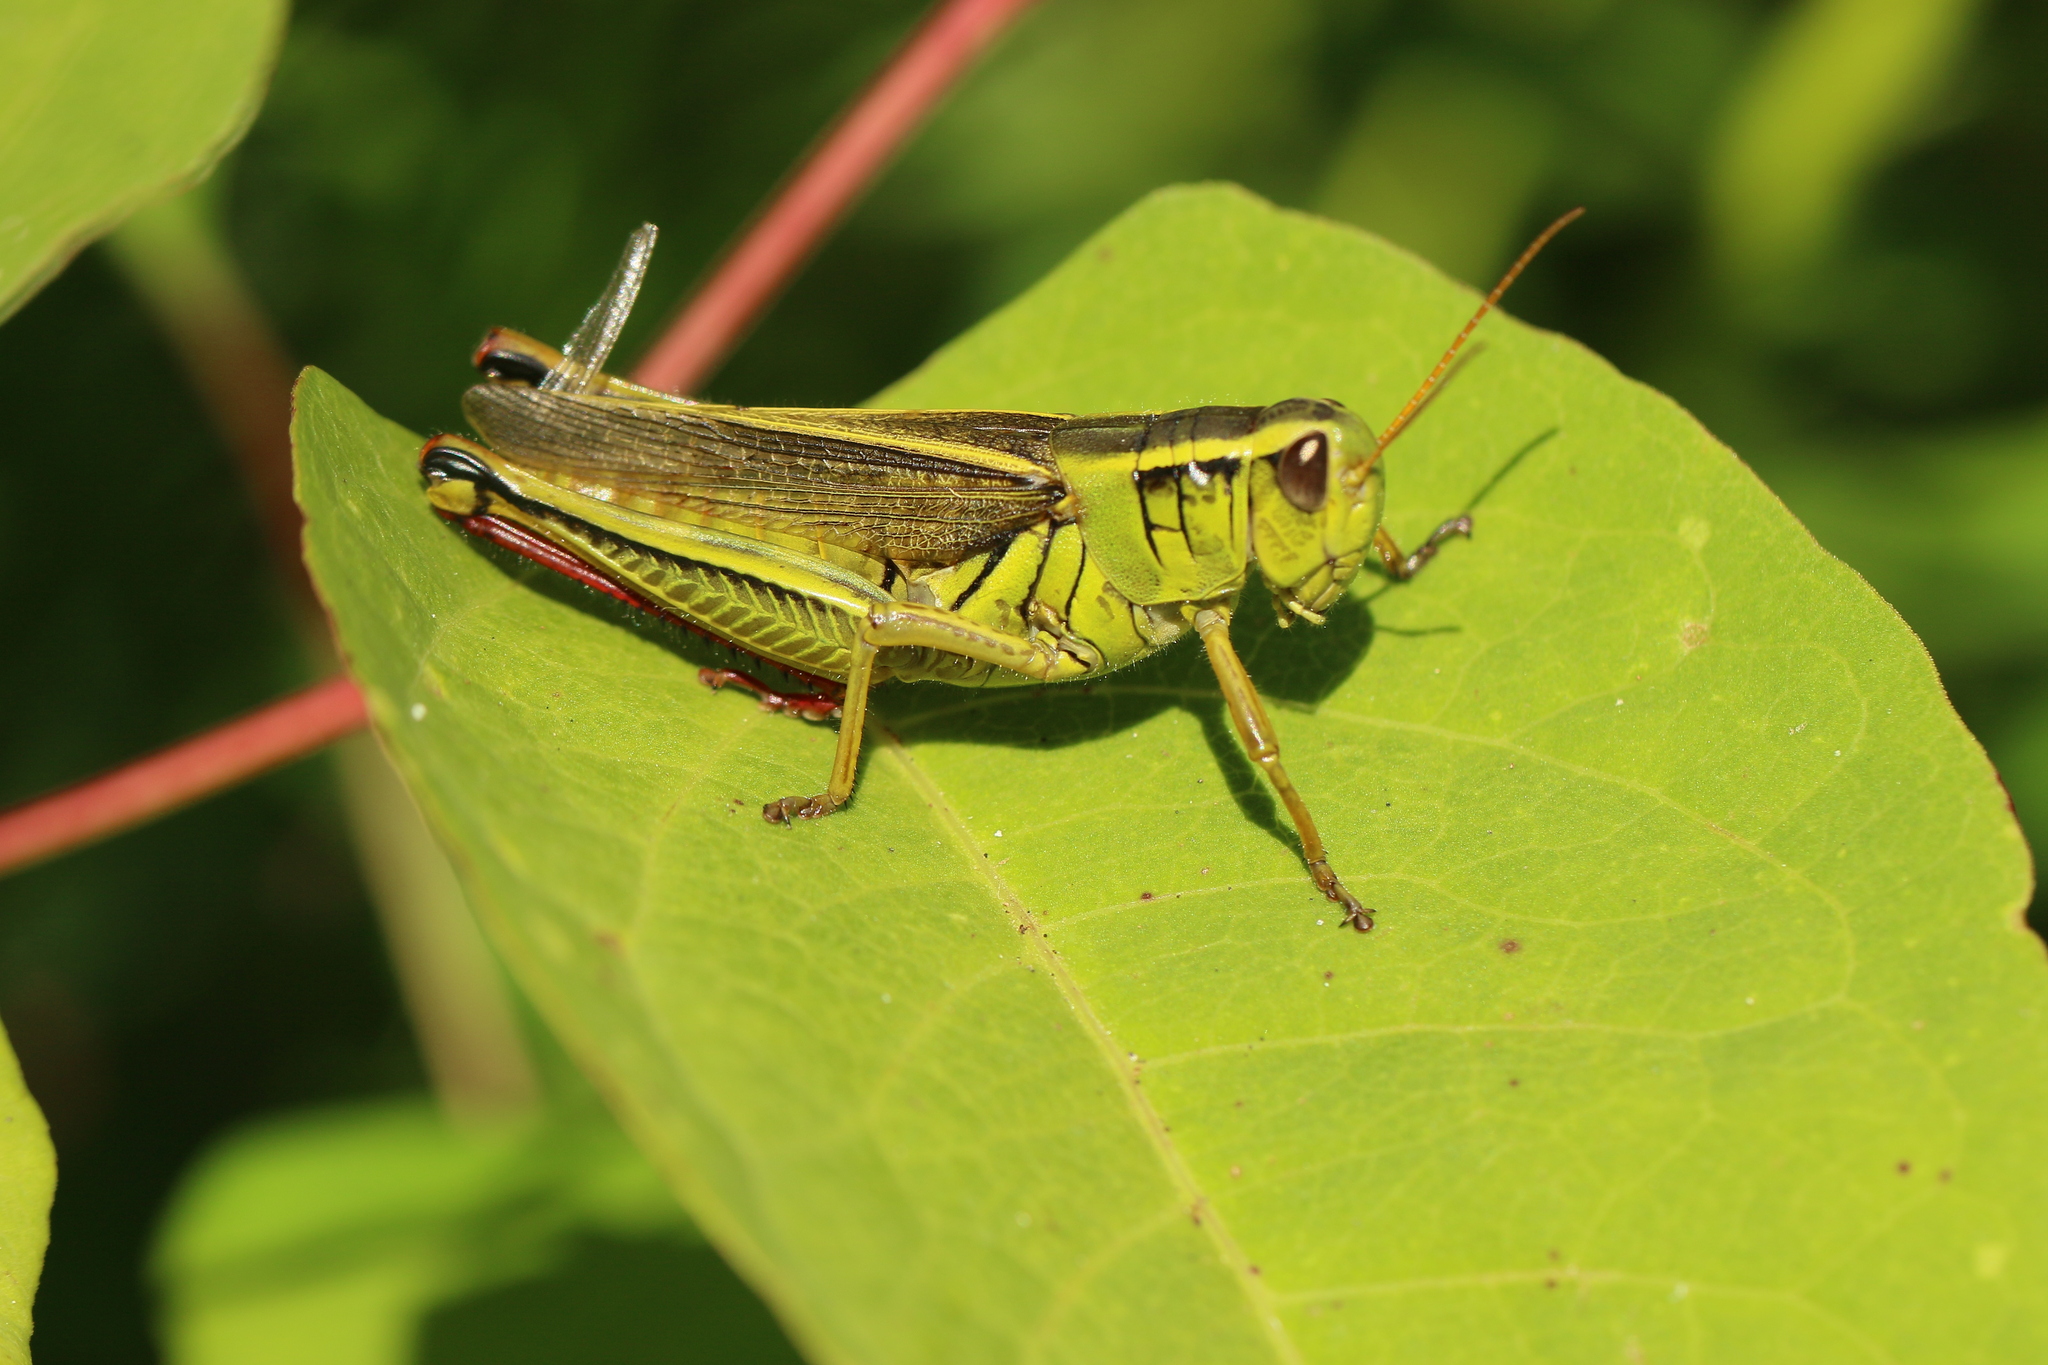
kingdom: Animalia
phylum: Arthropoda
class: Insecta
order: Orthoptera
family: Acrididae
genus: Melanoplus
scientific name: Melanoplus bivittatus
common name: Two-striped grasshopper
